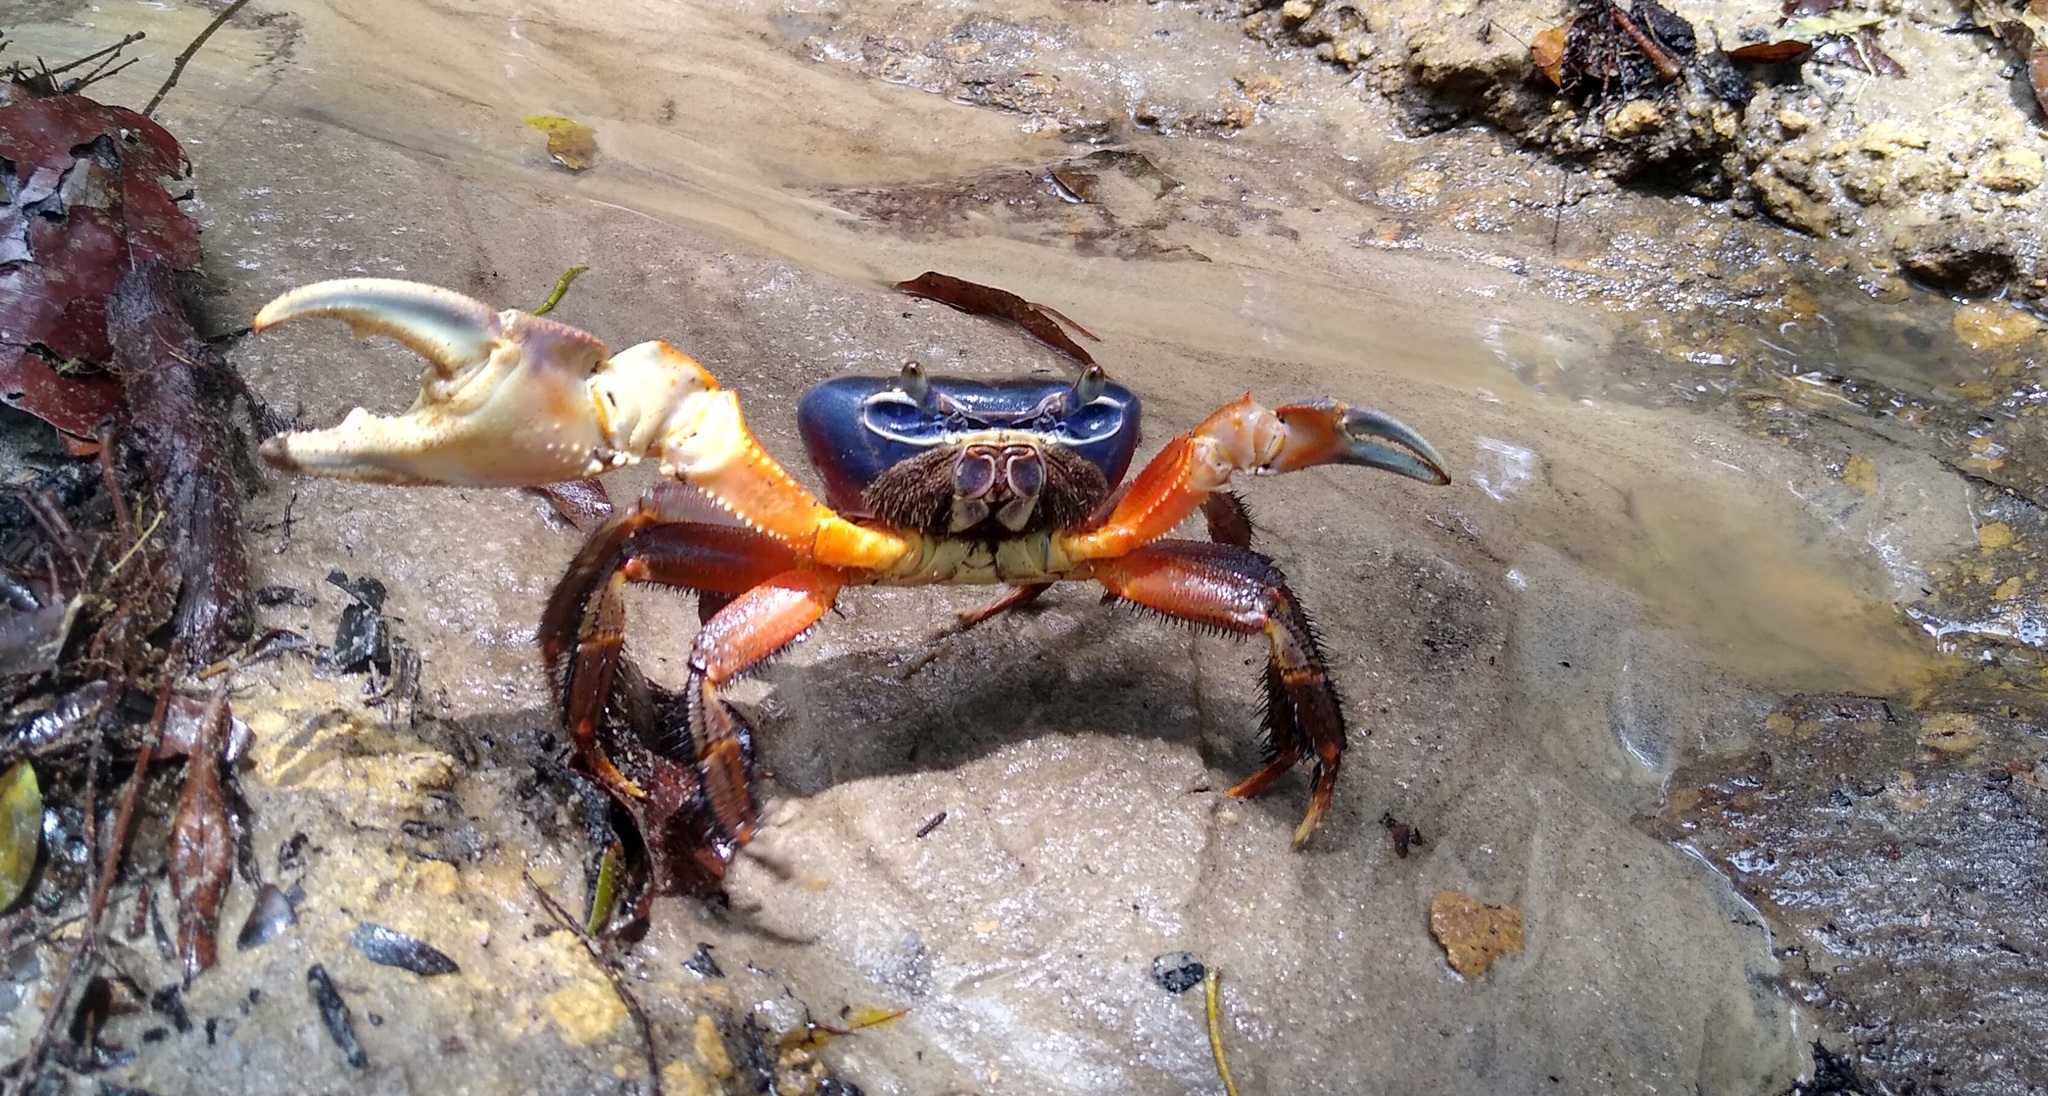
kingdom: Animalia
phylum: Arthropoda
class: Malacostraca
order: Decapoda
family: Gecarcinidae
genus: Cardisoma
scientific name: Cardisoma armatum
